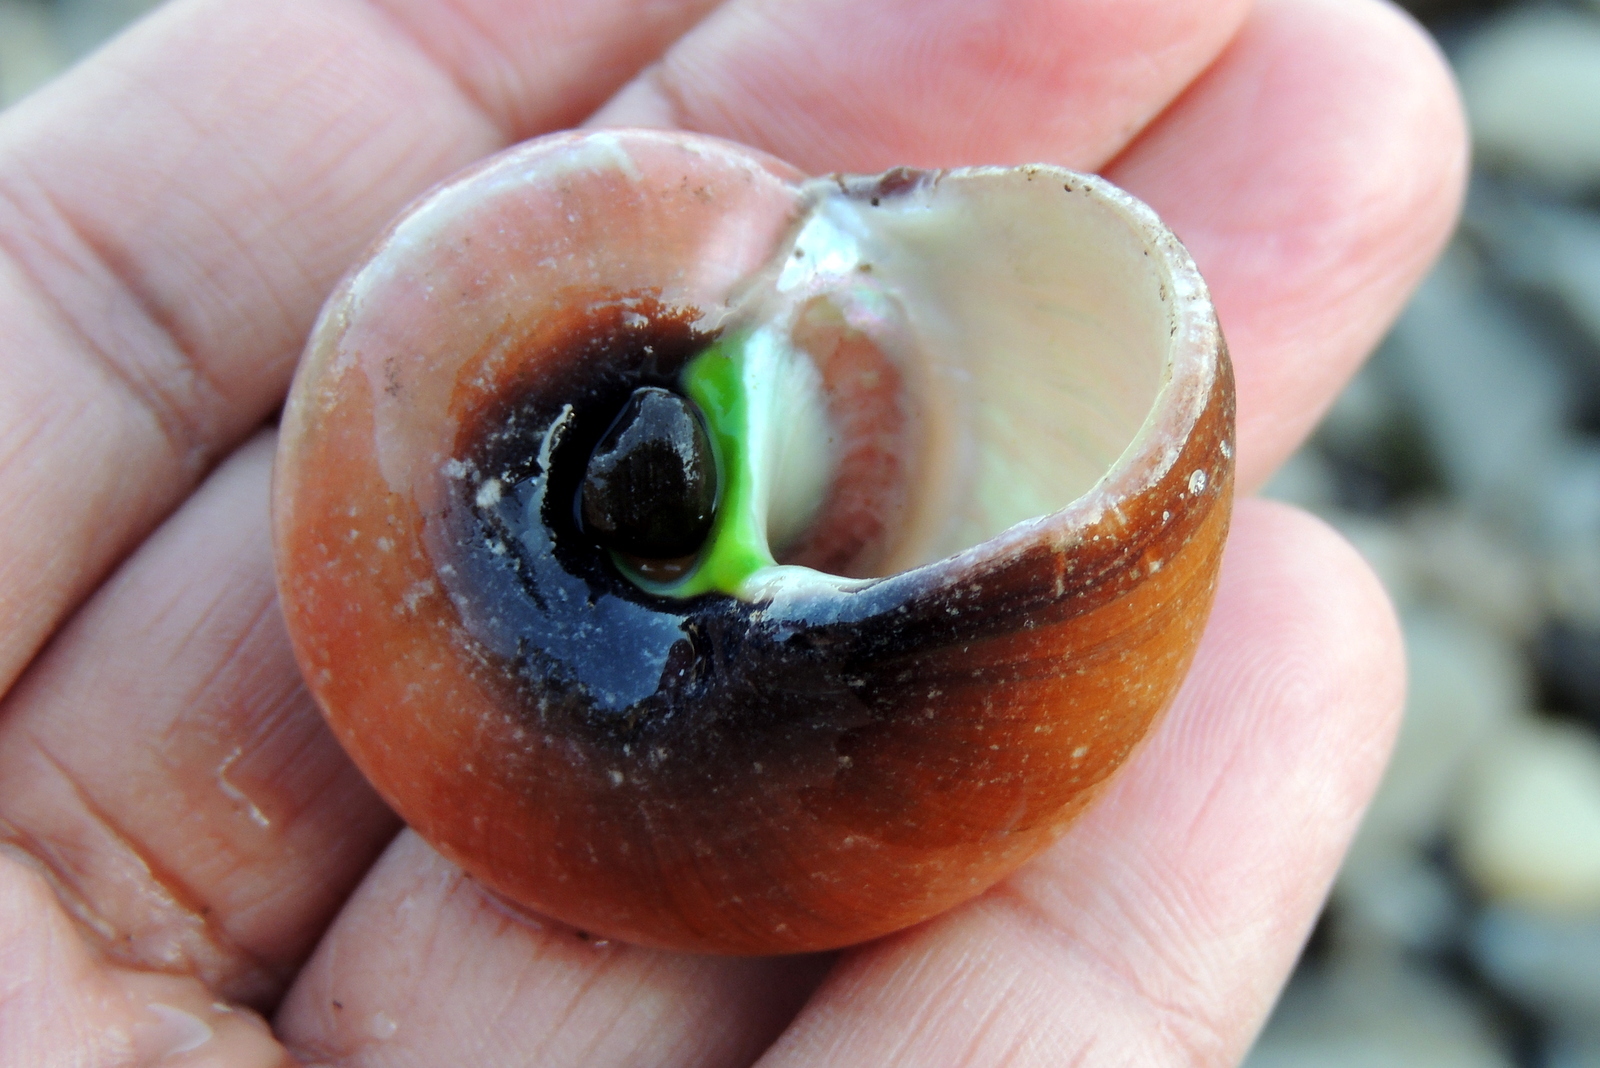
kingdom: Animalia
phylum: Mollusca
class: Gastropoda
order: Trochida
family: Tegulidae
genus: Norrisia
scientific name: Norrisia norrisii
